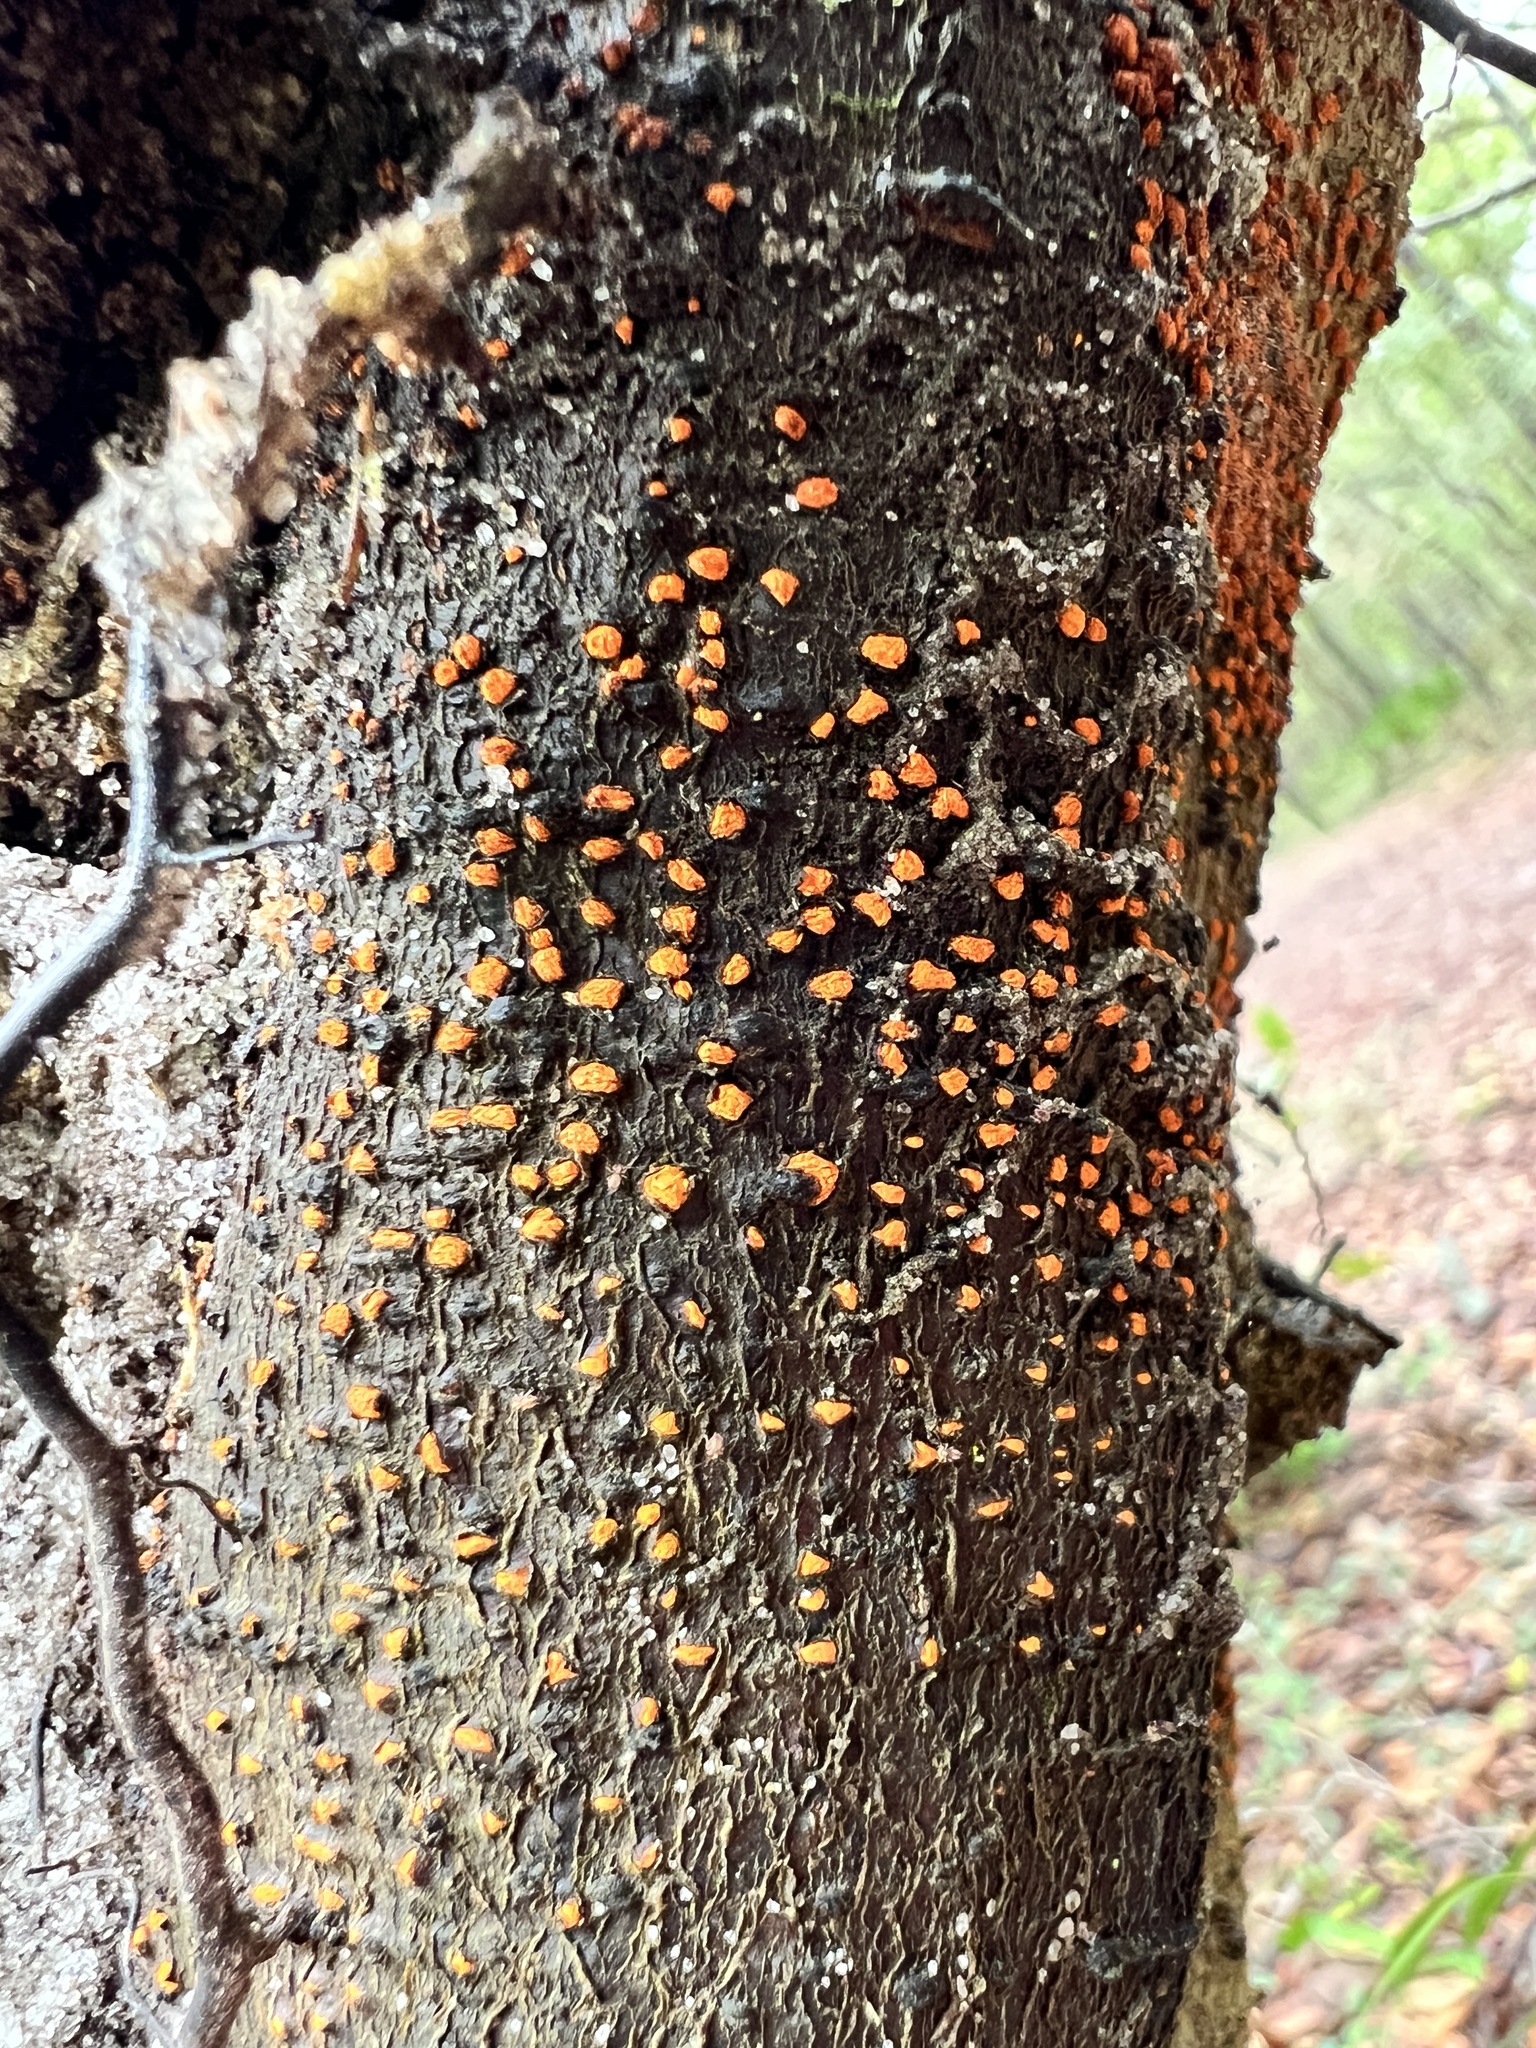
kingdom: Fungi
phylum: Ascomycota
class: Sordariomycetes
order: Diaporthales
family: Cryphonectriaceae
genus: Amphilogia
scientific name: Amphilogia gyrosa
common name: Orange hobnail canker
